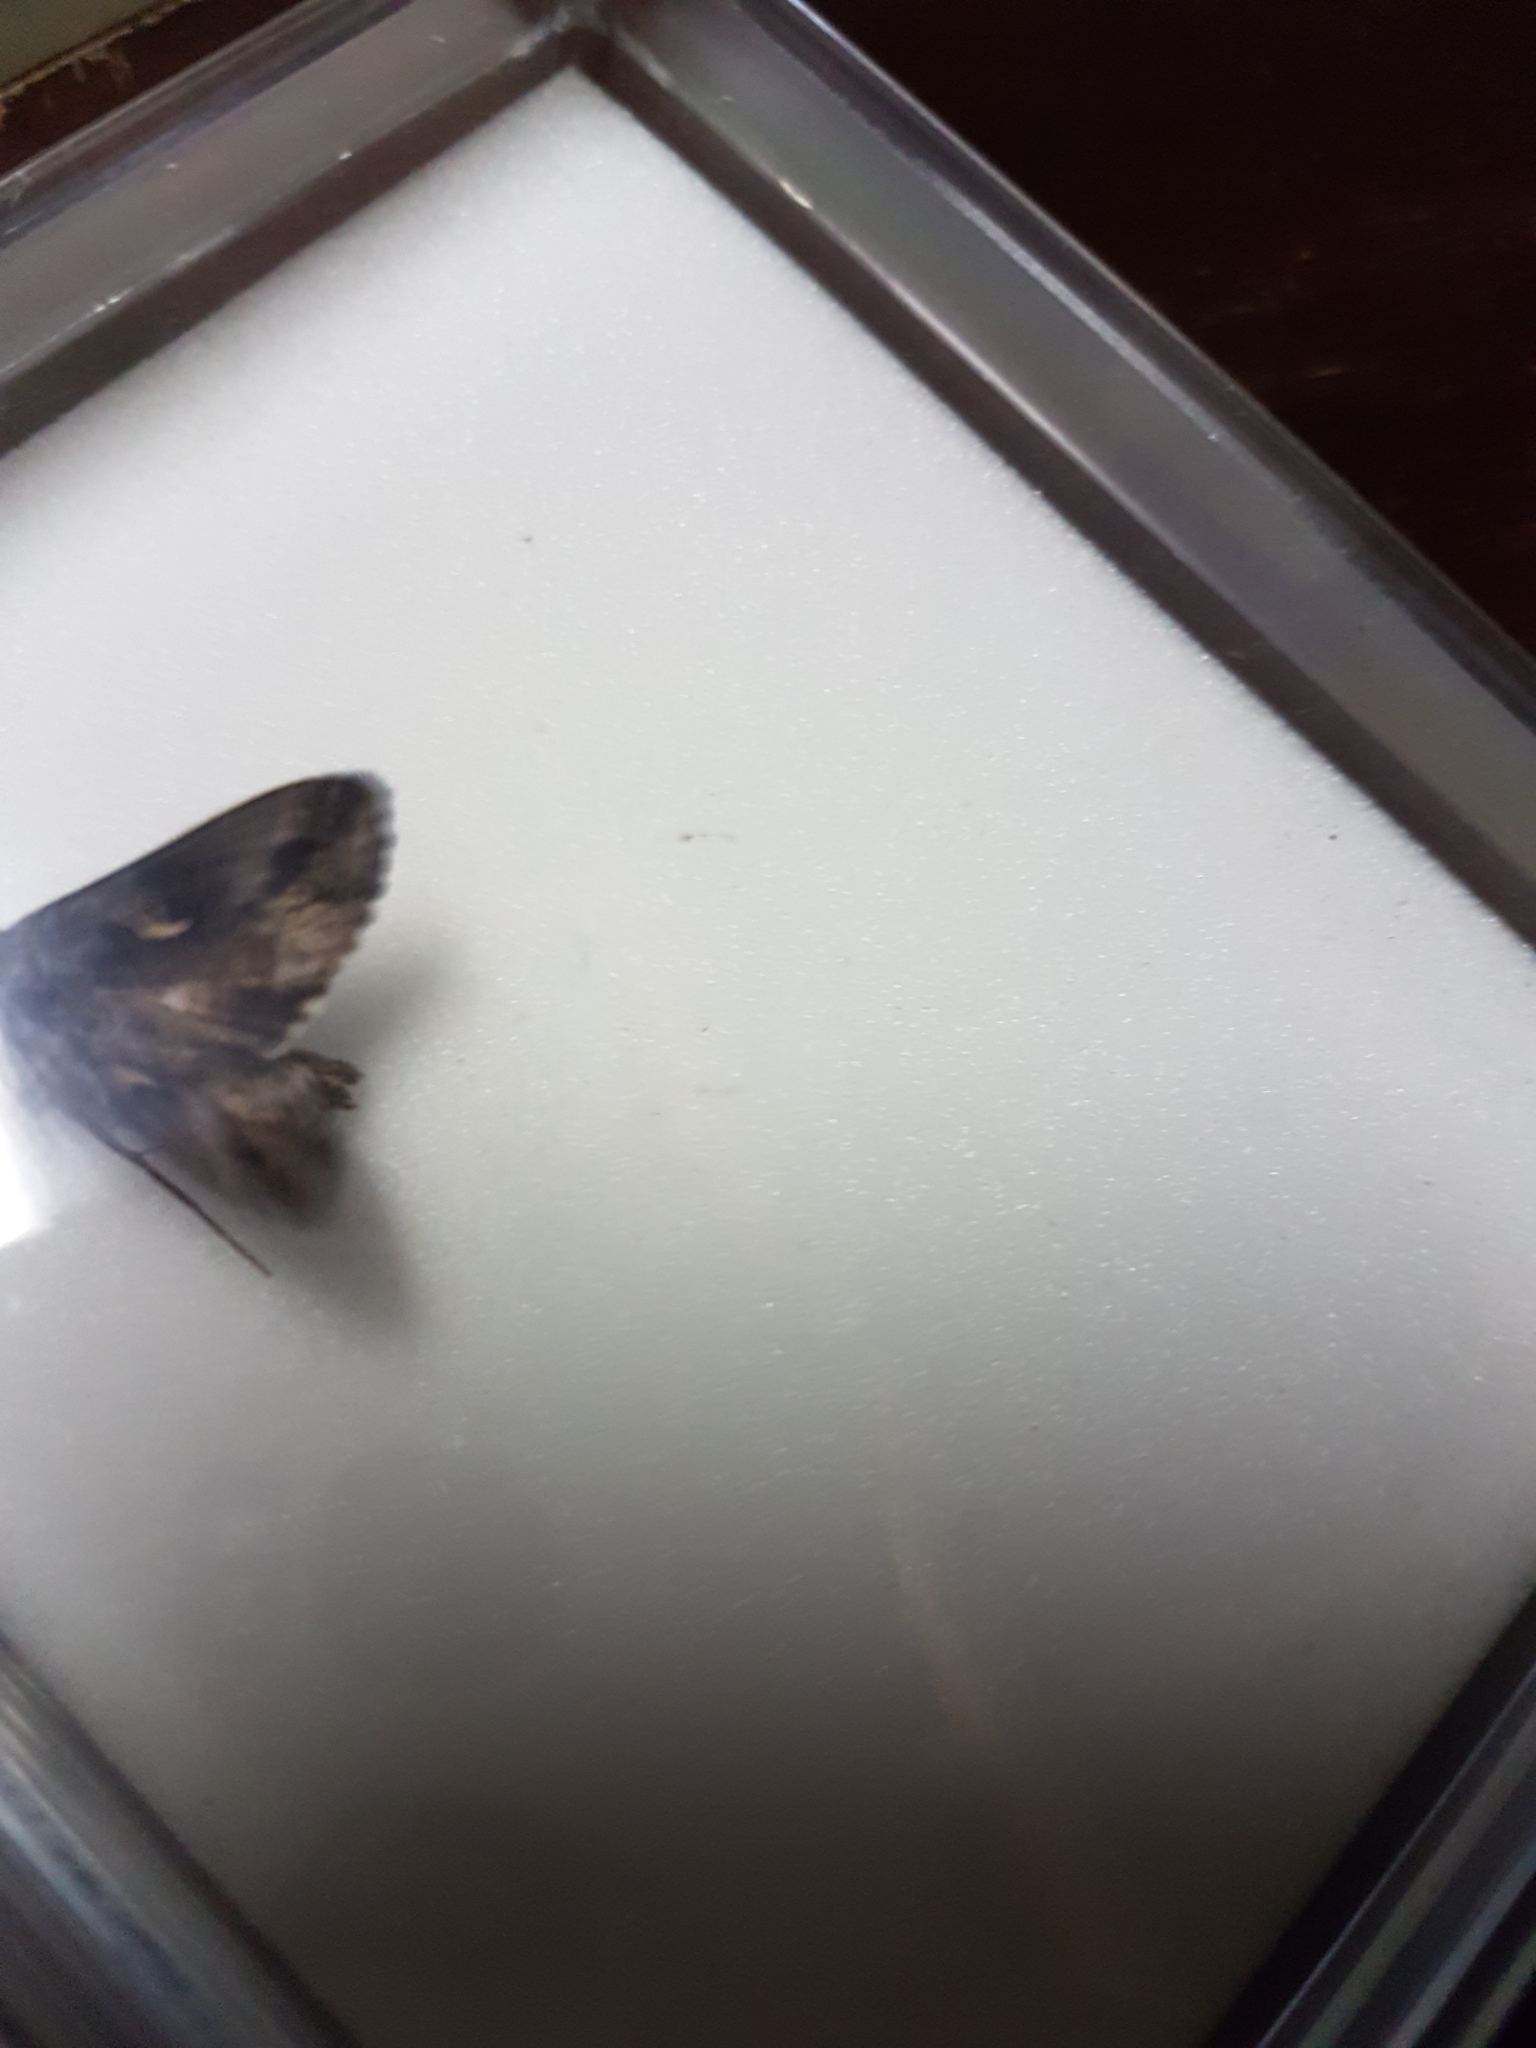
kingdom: Animalia
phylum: Arthropoda
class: Insecta
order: Lepidoptera
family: Noctuidae
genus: Autographa
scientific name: Autographa gamma
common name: Silver y
